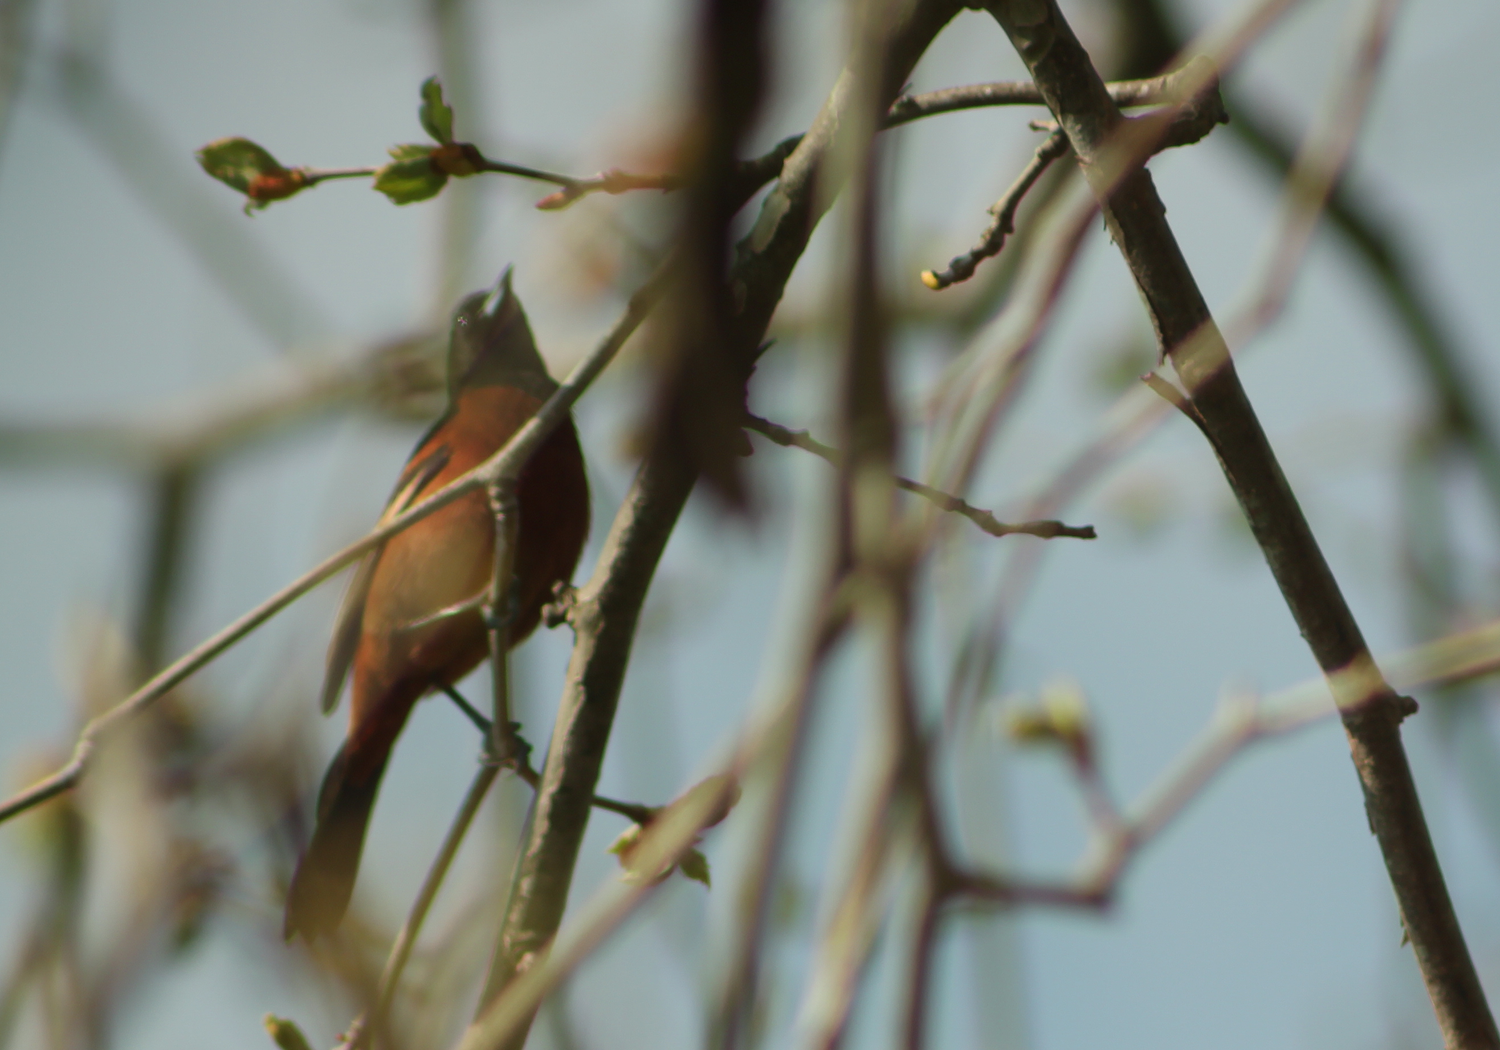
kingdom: Animalia
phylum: Chordata
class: Aves
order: Passeriformes
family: Icteridae
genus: Icterus
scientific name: Icterus spurius
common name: Orchard oriole
